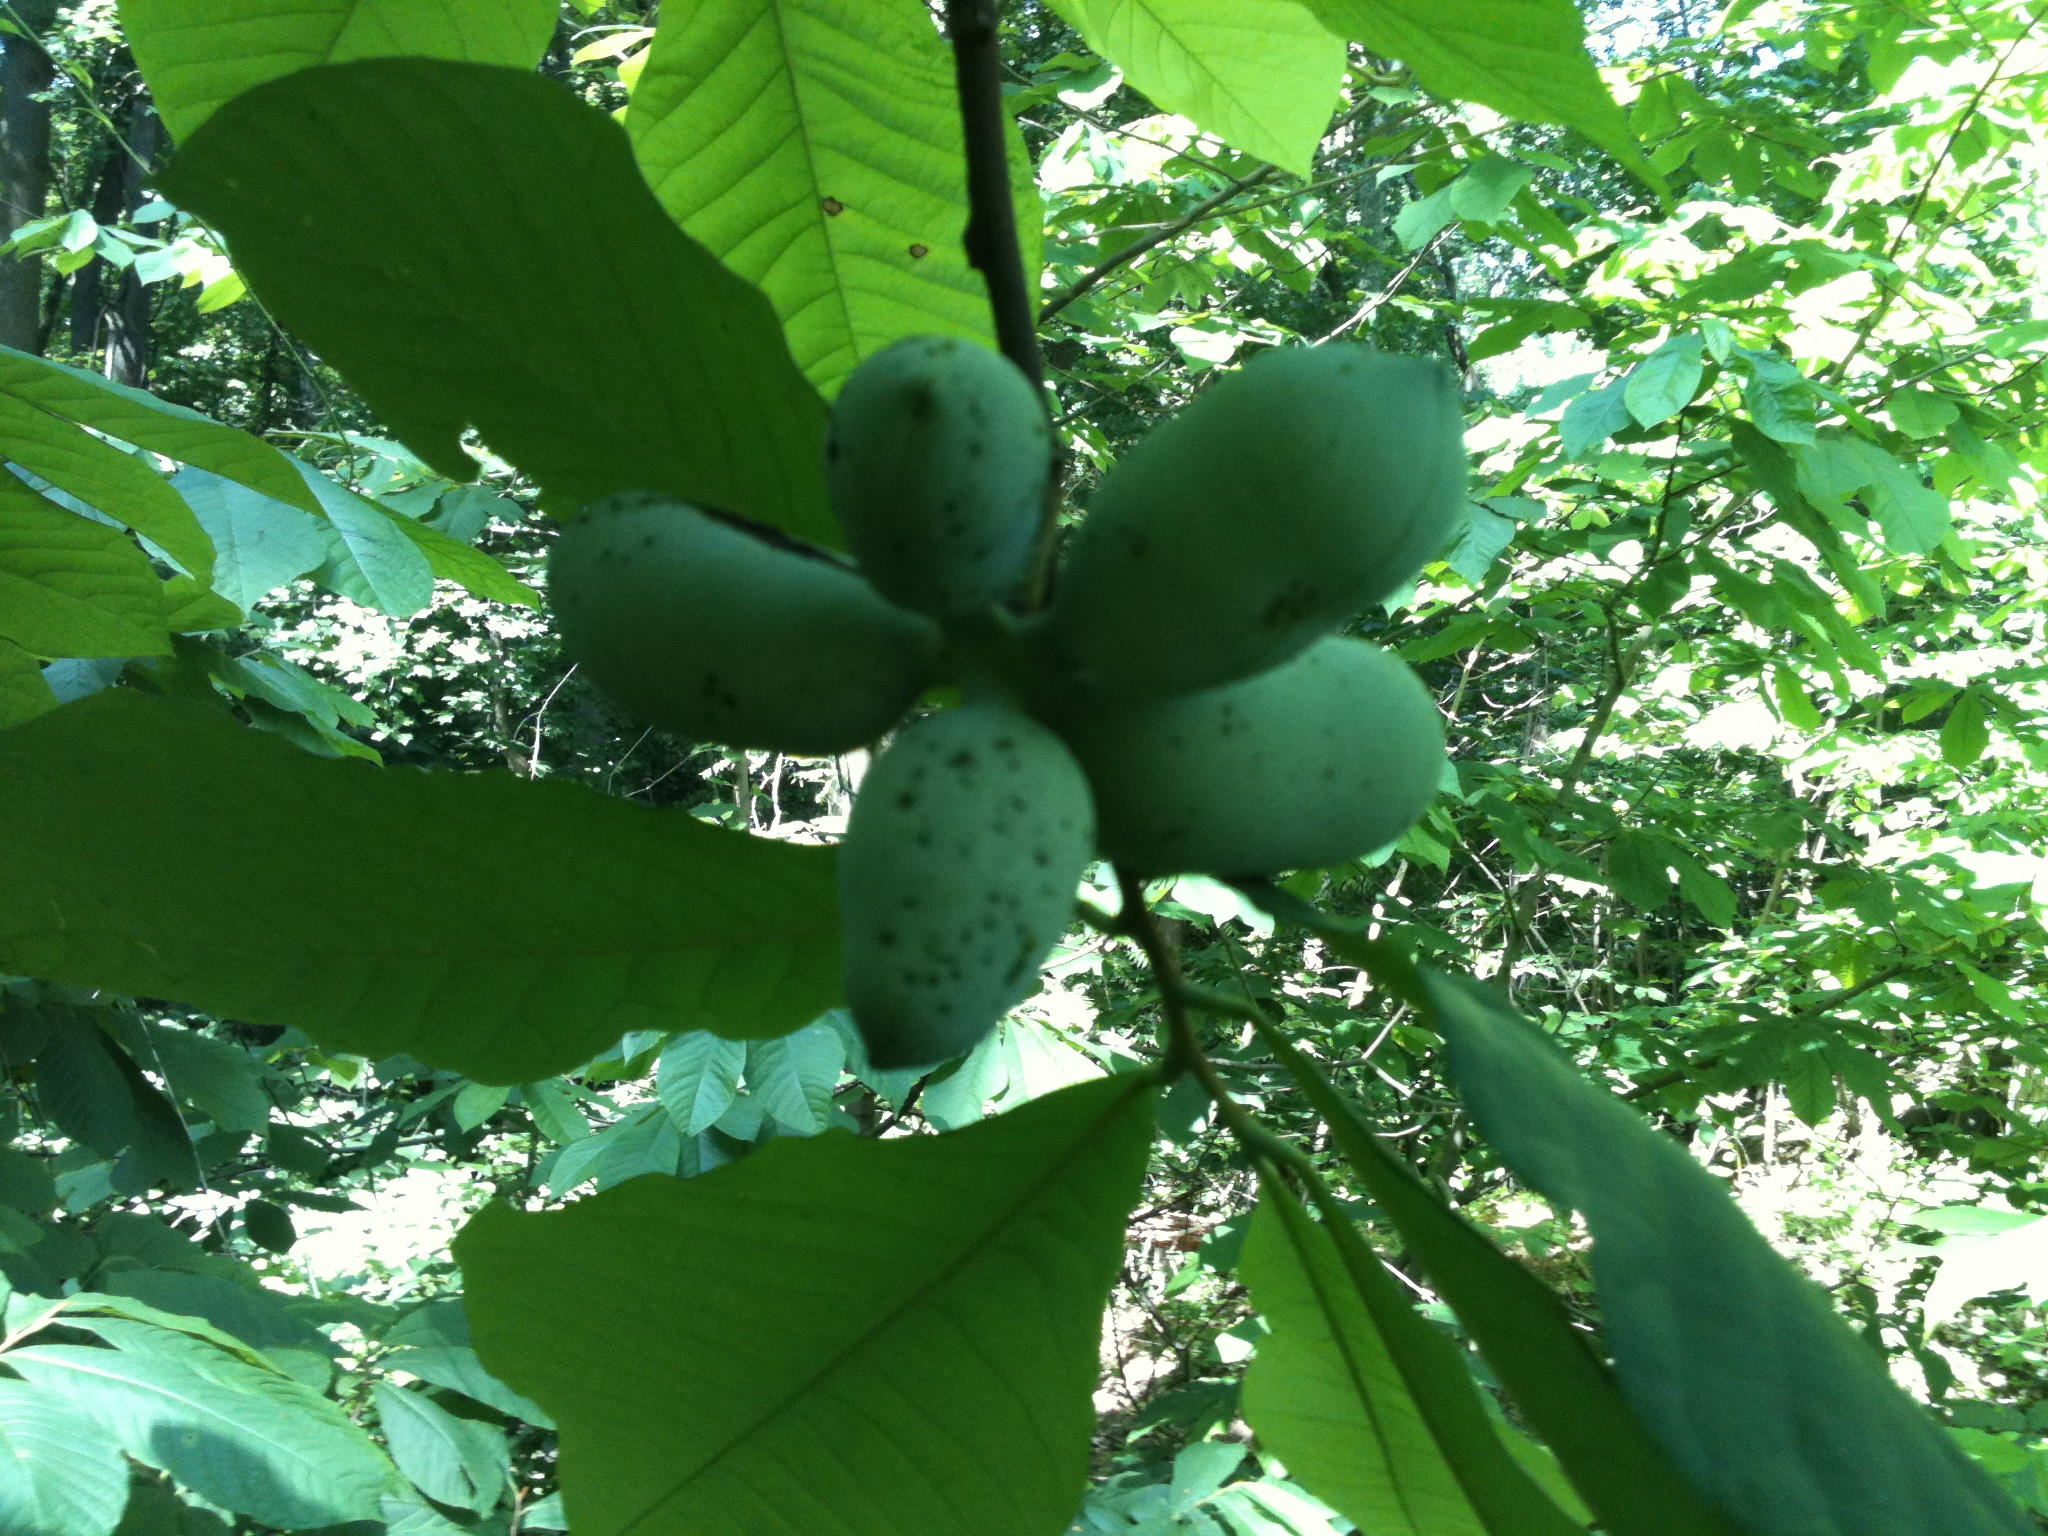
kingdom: Plantae
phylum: Tracheophyta
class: Magnoliopsida
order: Magnoliales
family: Annonaceae
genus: Asimina
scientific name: Asimina triloba
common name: Dog-banana
